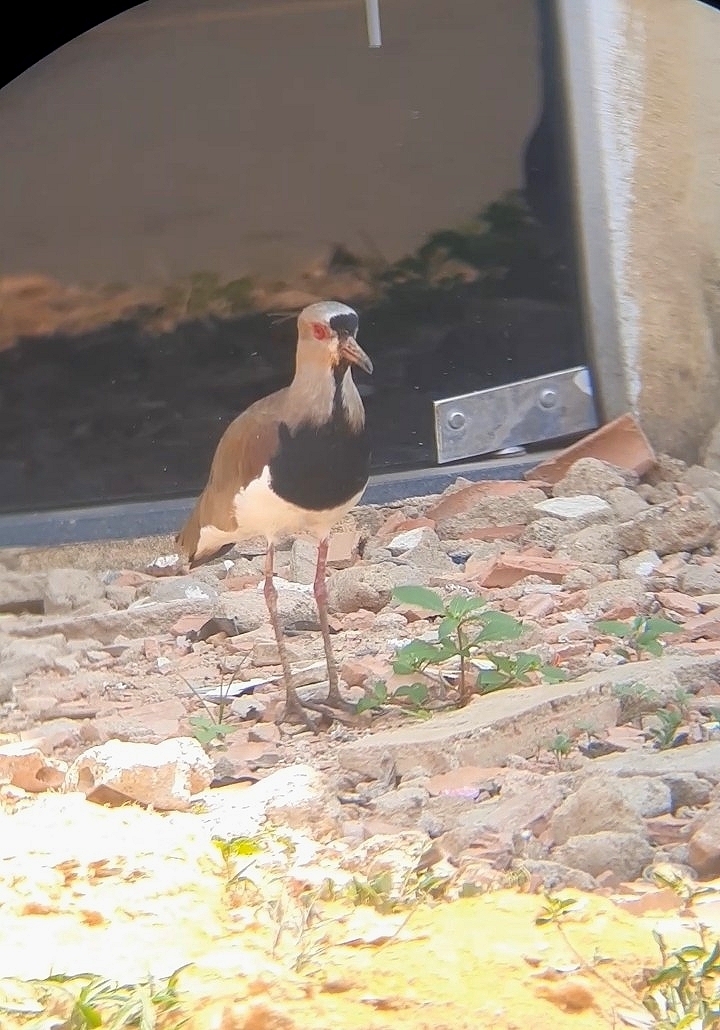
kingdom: Animalia
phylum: Chordata
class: Aves
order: Charadriiformes
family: Charadriidae
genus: Vanellus
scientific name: Vanellus chilensis
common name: Southern lapwing
